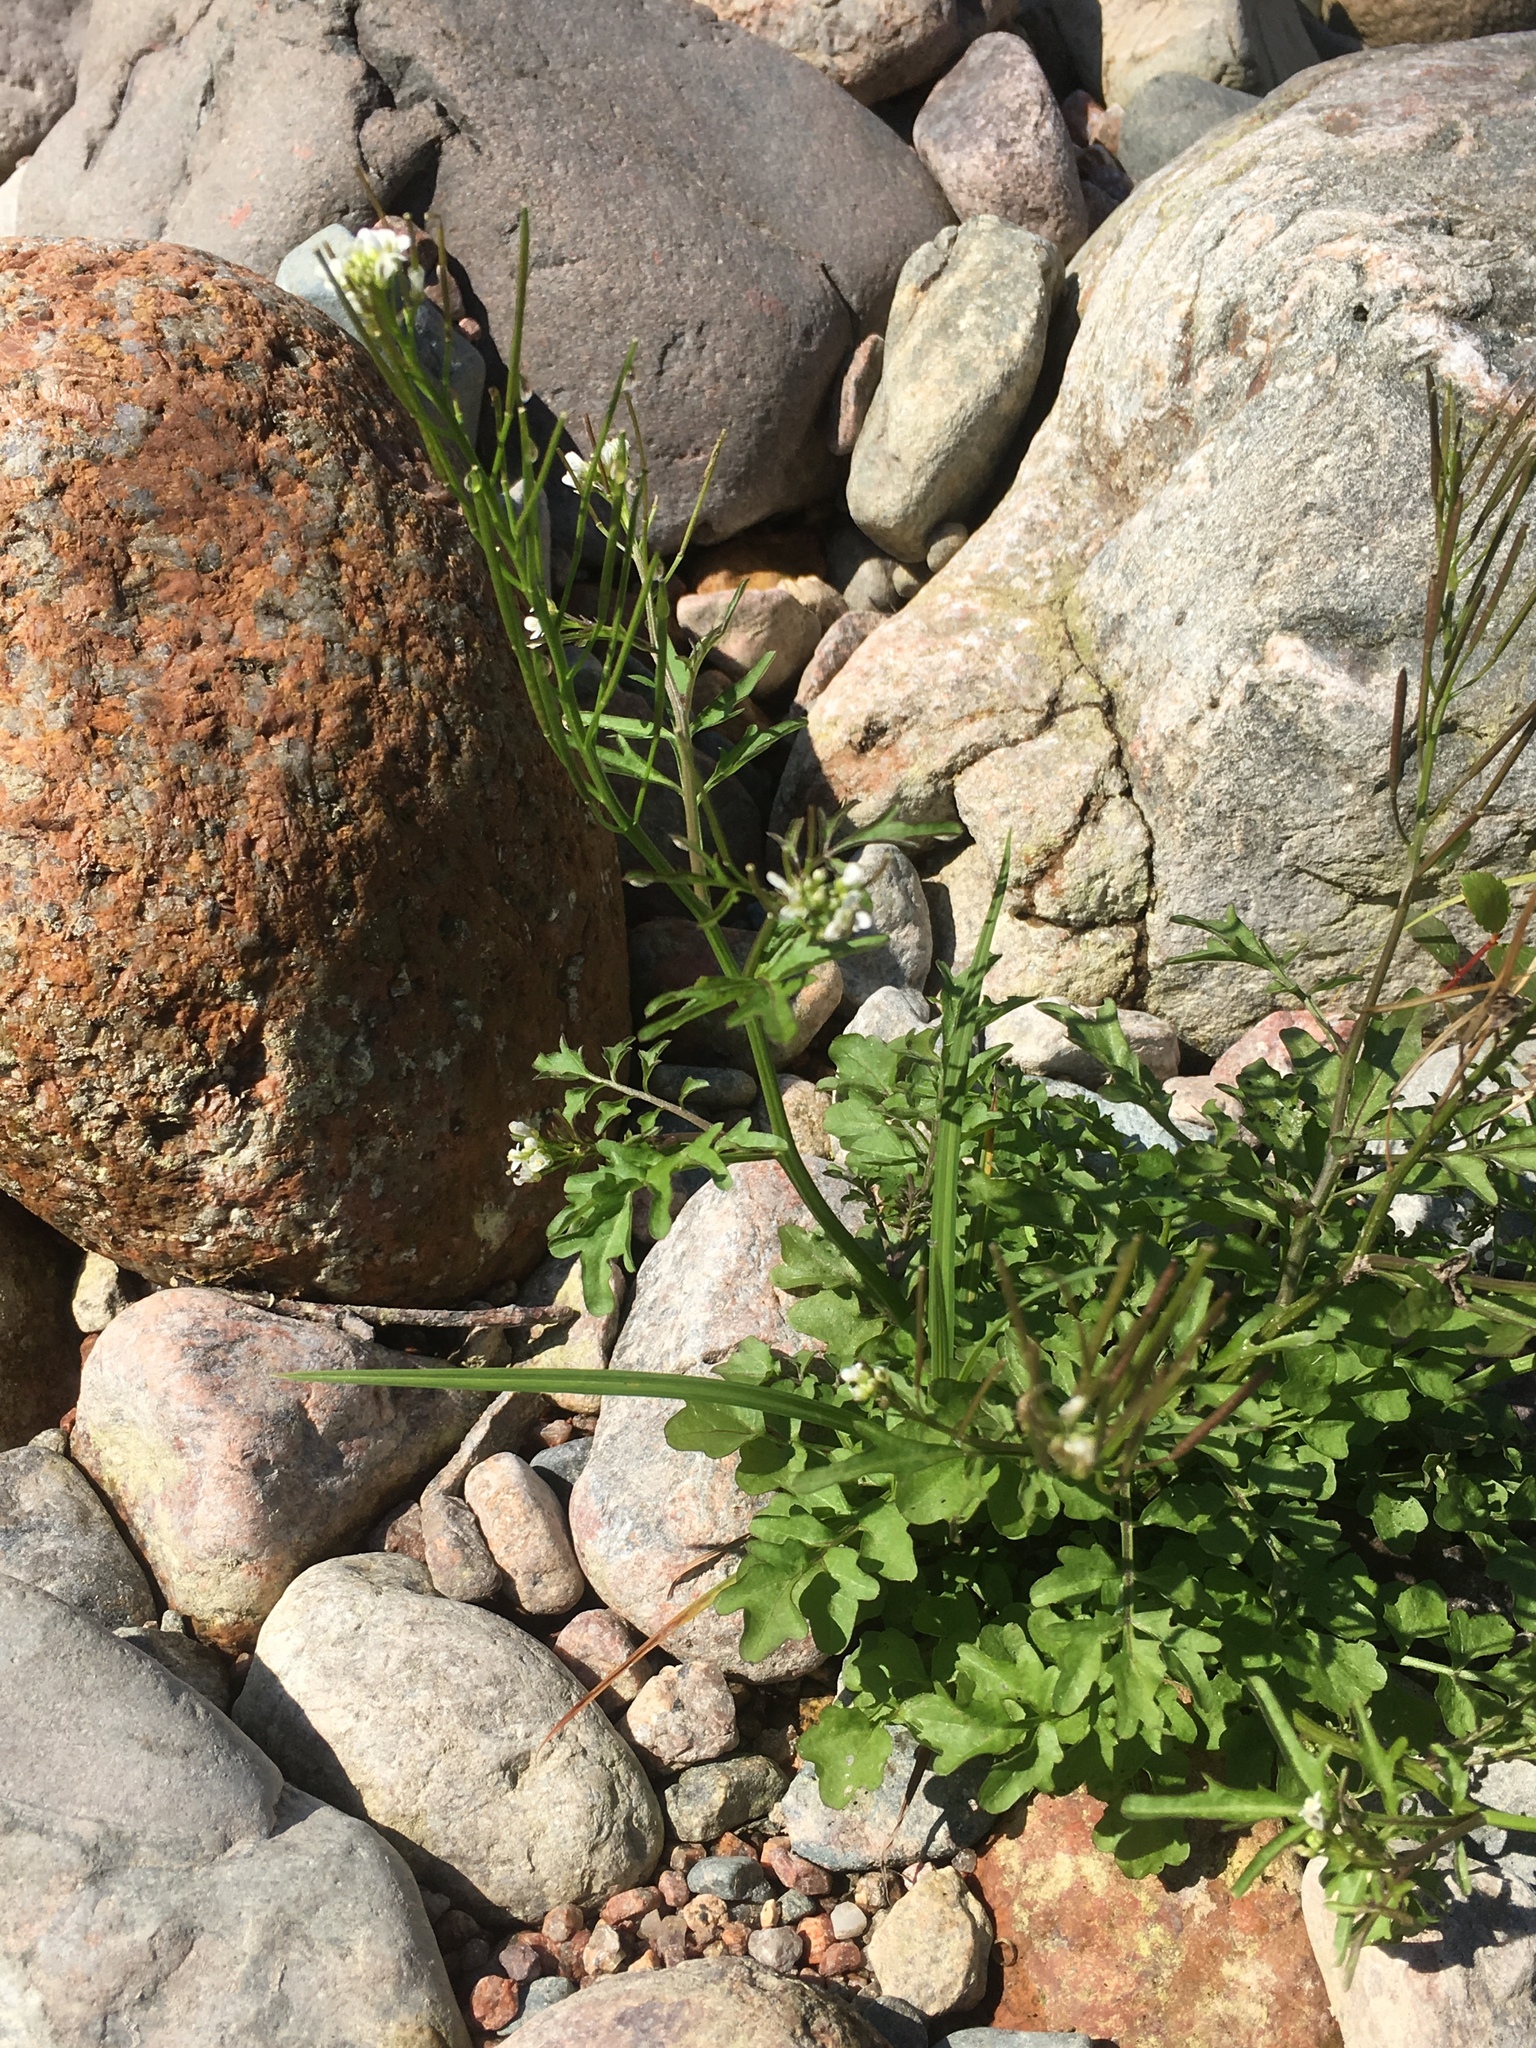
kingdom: Plantae
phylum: Tracheophyta
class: Magnoliopsida
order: Brassicales
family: Brassicaceae
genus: Cardamine
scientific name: Cardamine pensylvanica
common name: Pennsylvania bittercress
